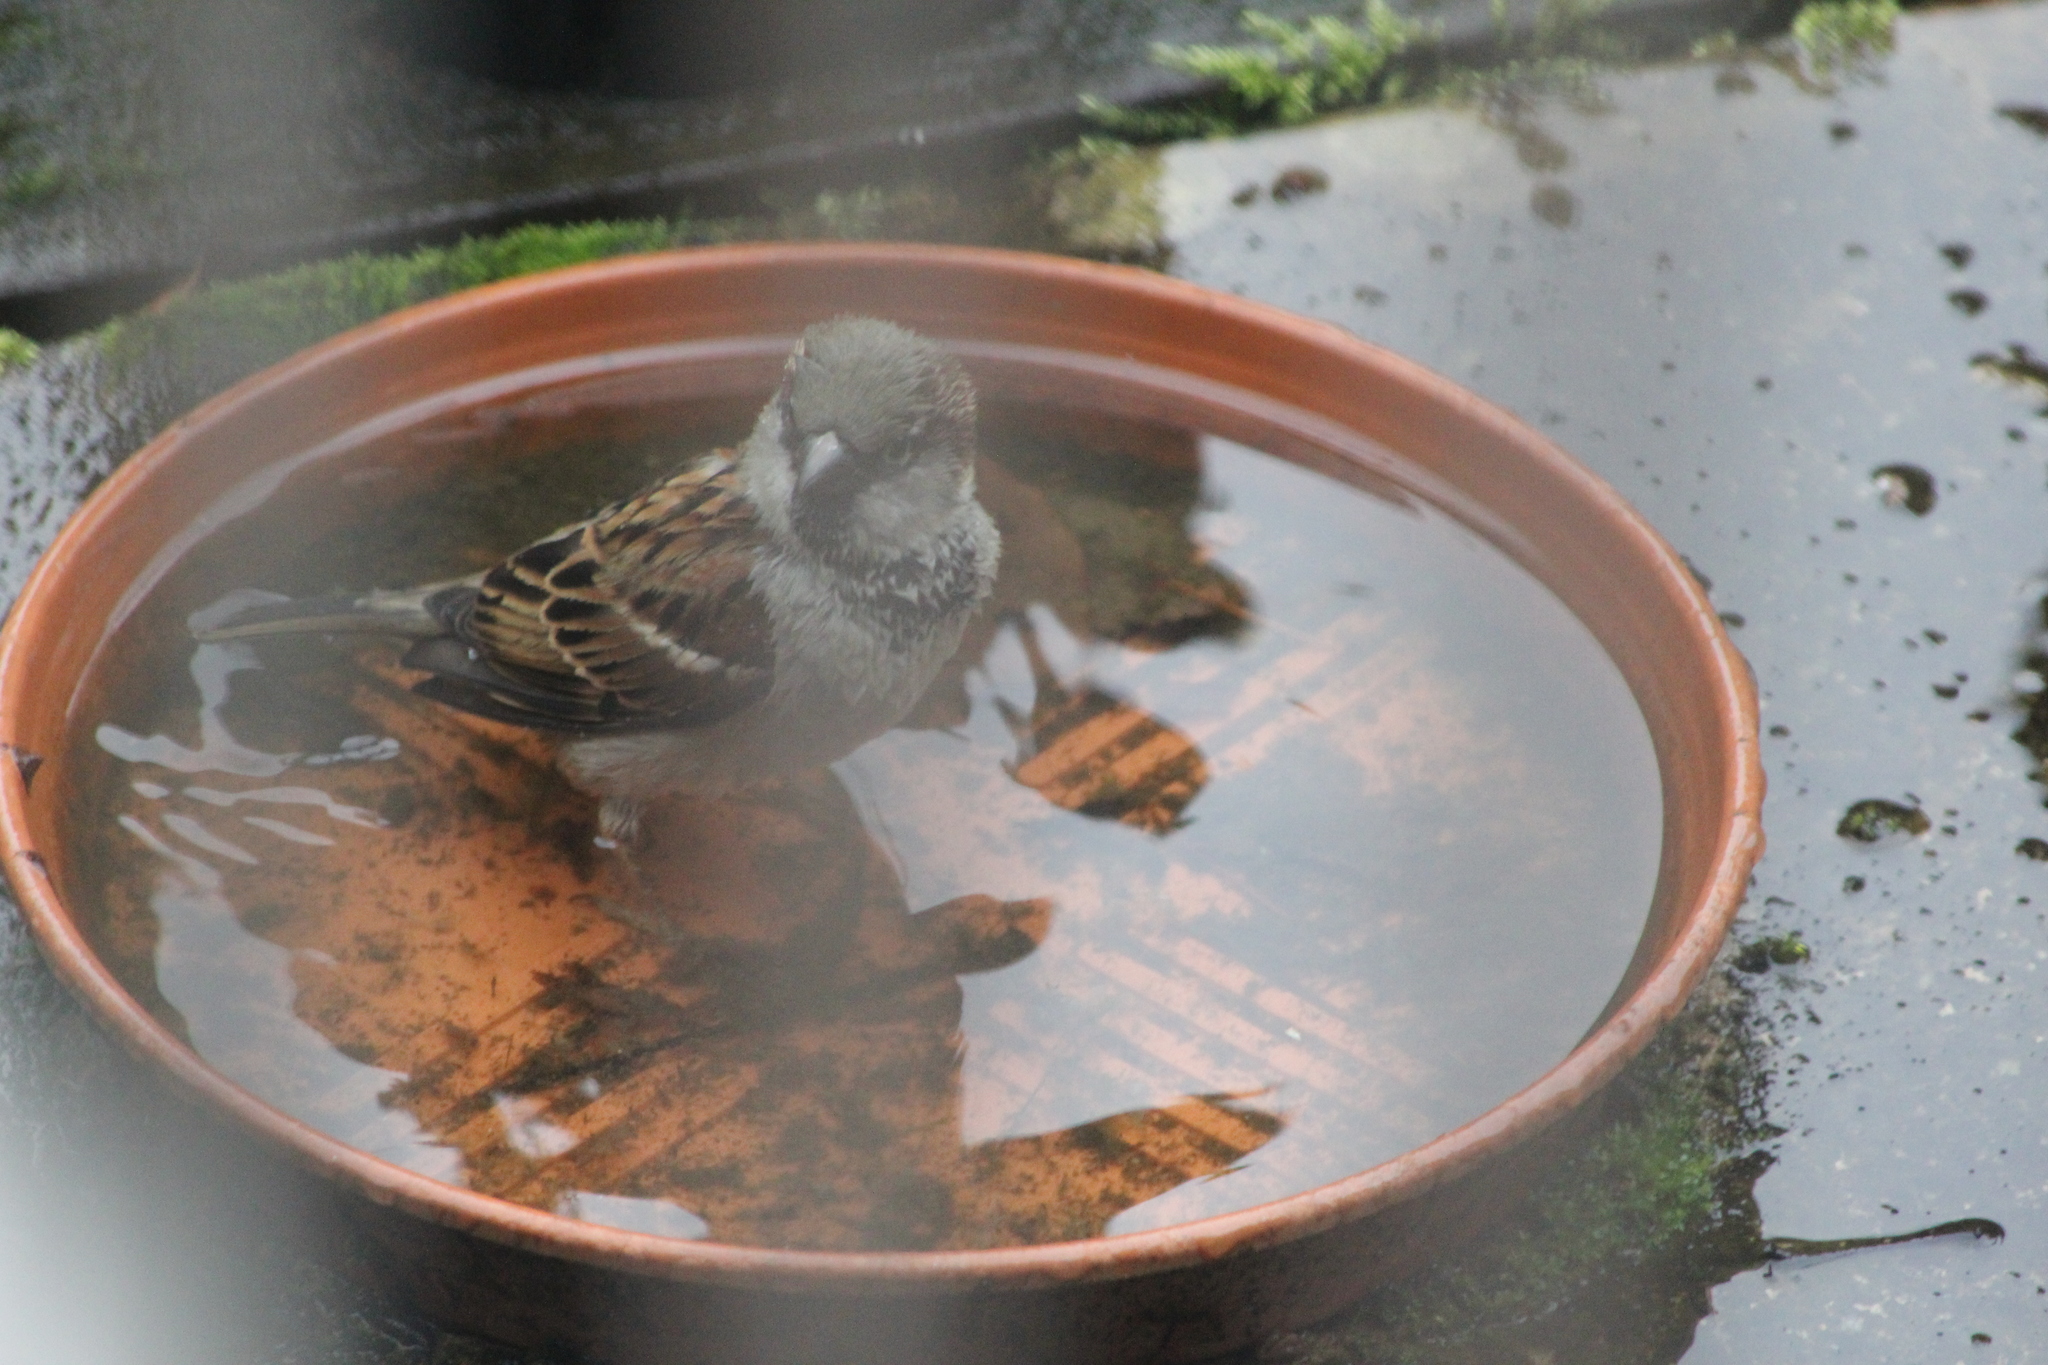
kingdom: Animalia
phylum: Chordata
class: Aves
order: Passeriformes
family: Passeridae
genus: Passer
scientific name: Passer domesticus
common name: House sparrow
